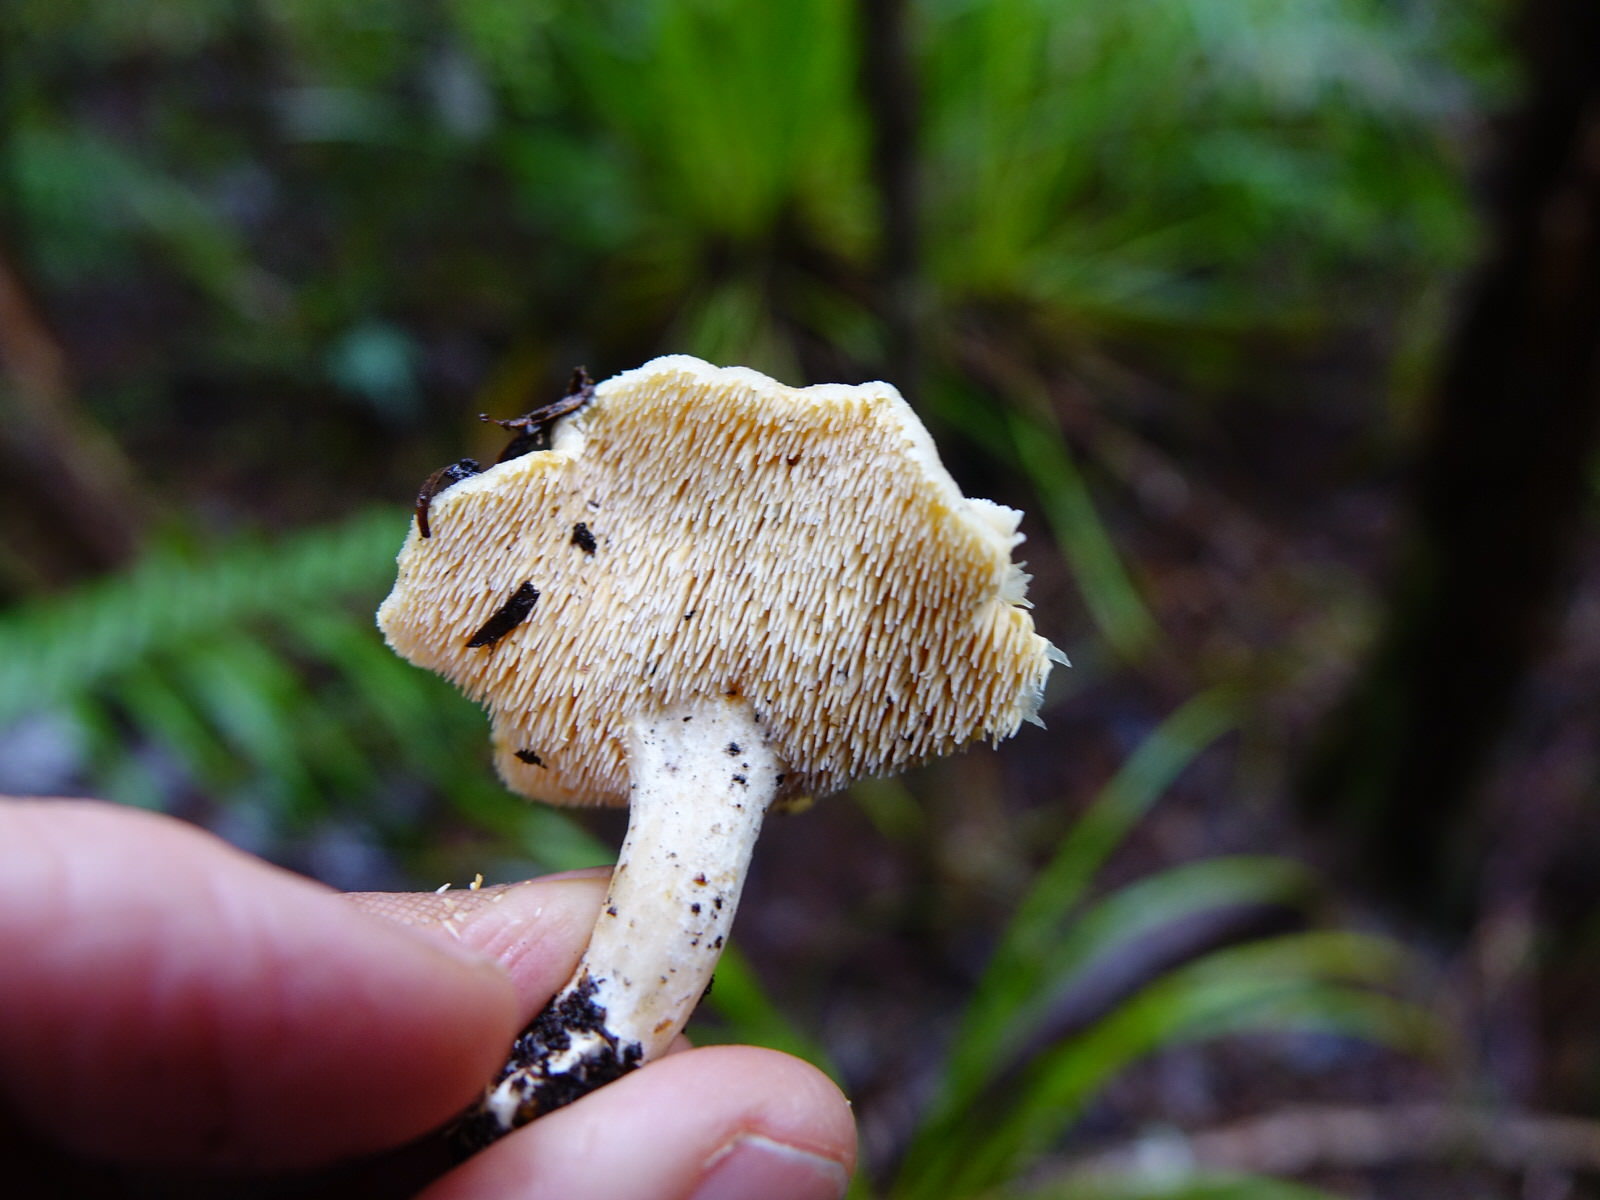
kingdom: Fungi
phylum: Basidiomycota
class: Agaricomycetes
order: Cantharellales
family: Hydnaceae
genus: Hydnum
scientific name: Hydnum ambustum
